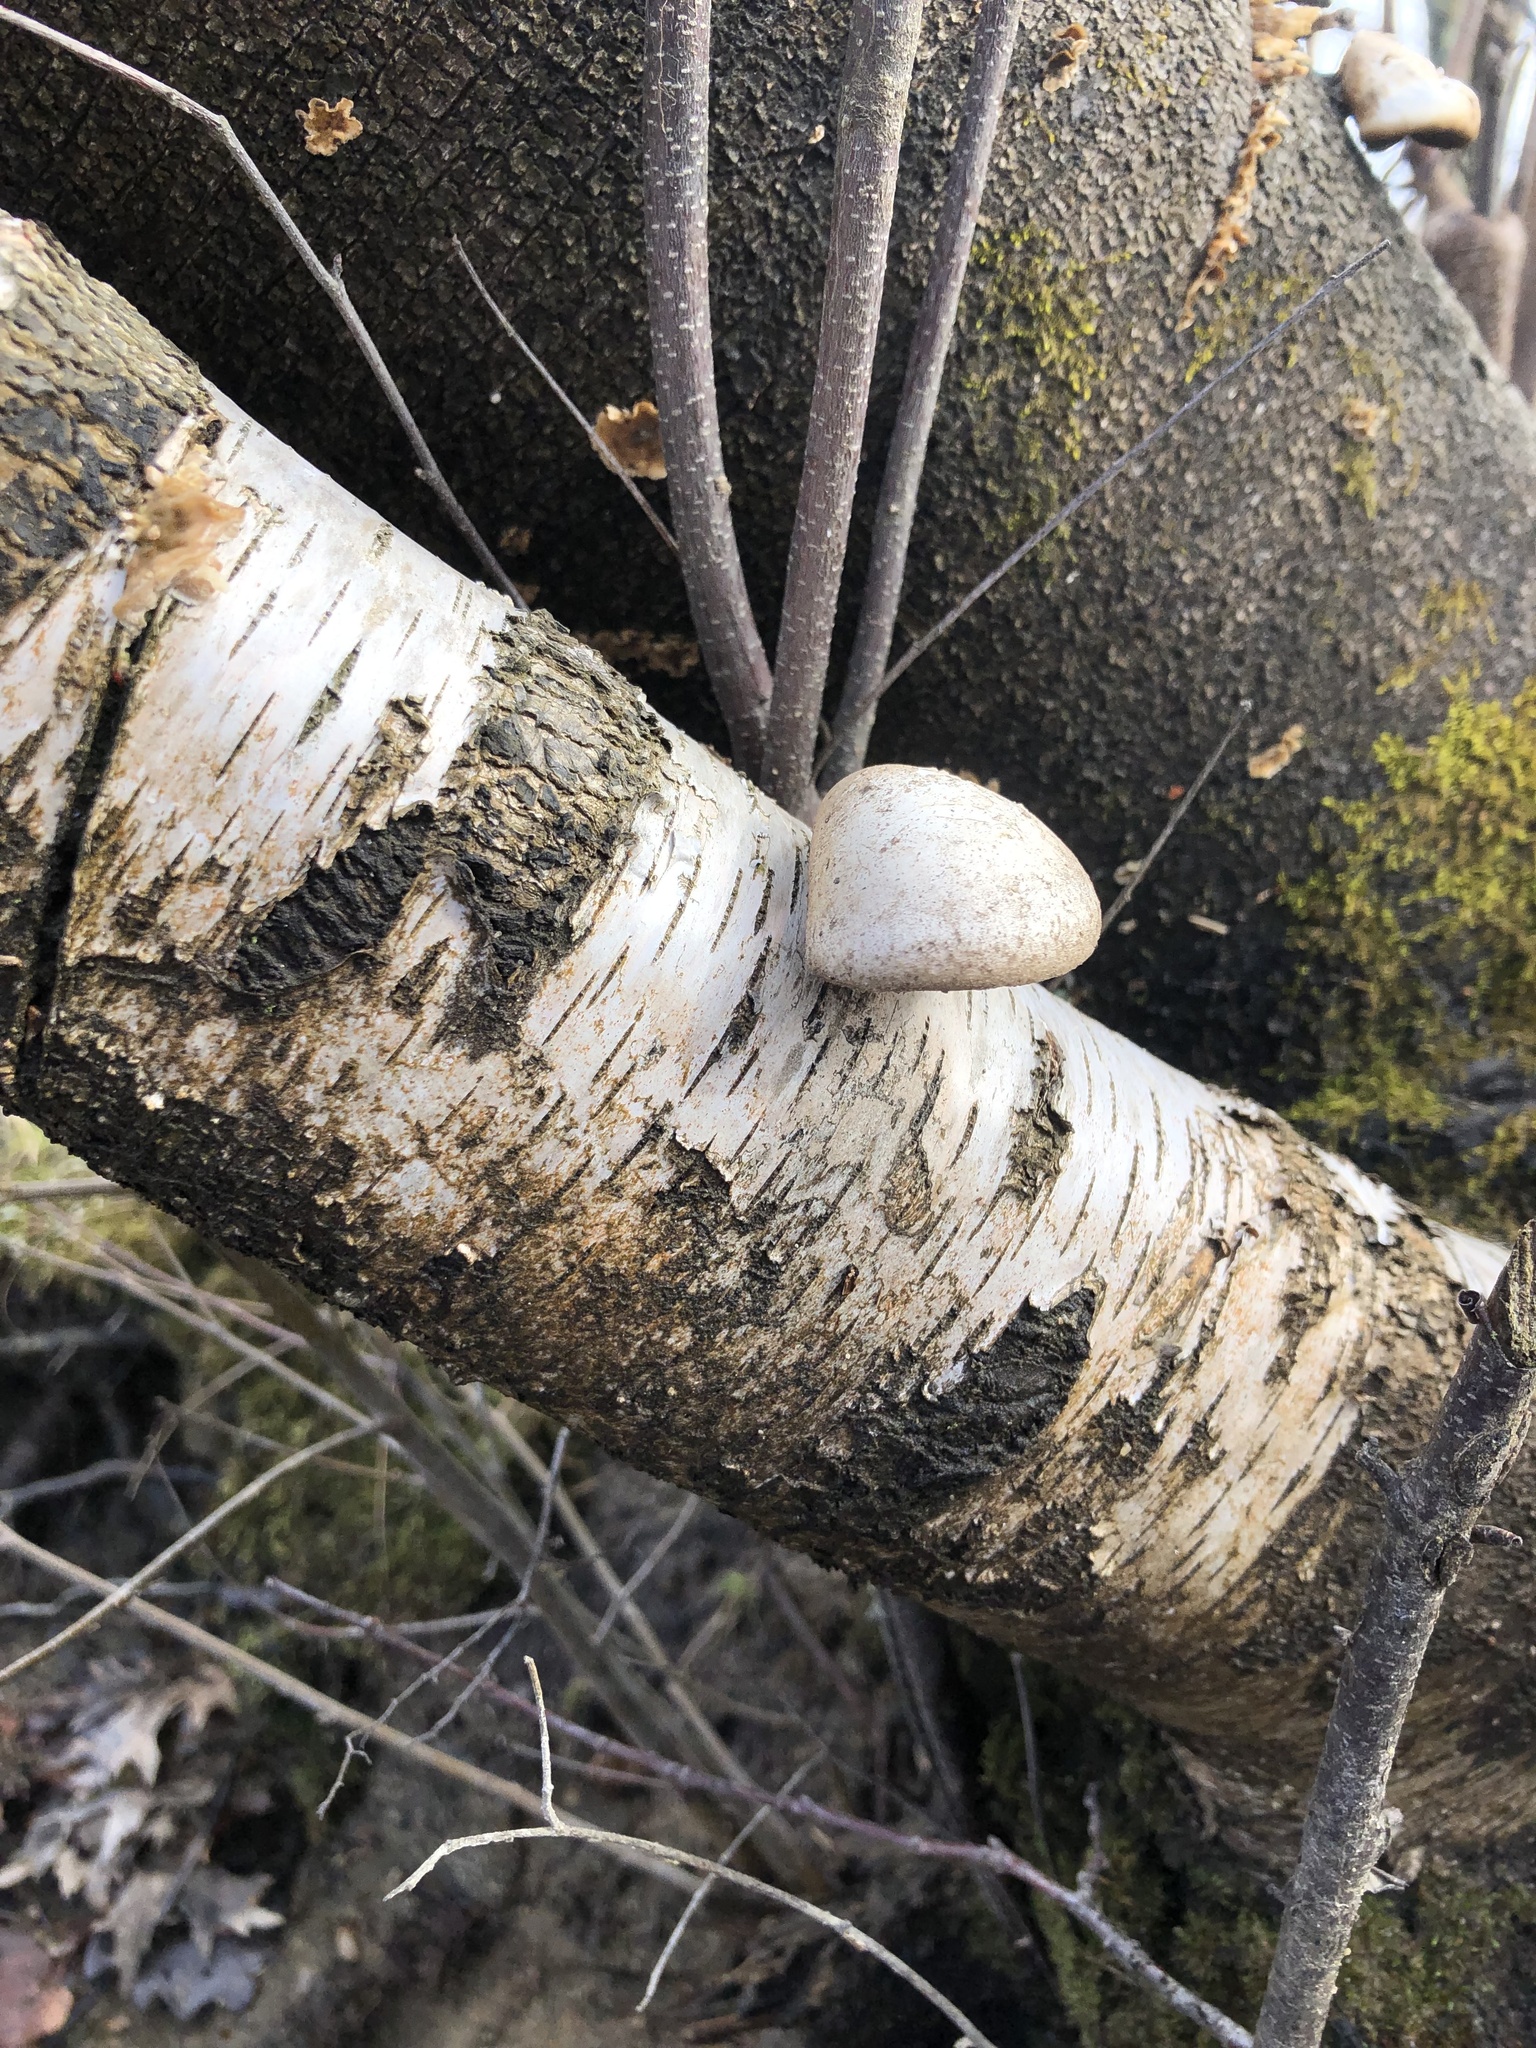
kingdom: Fungi
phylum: Basidiomycota
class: Agaricomycetes
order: Polyporales
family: Fomitopsidaceae
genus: Fomitopsis
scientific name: Fomitopsis betulina
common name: Birch polypore
